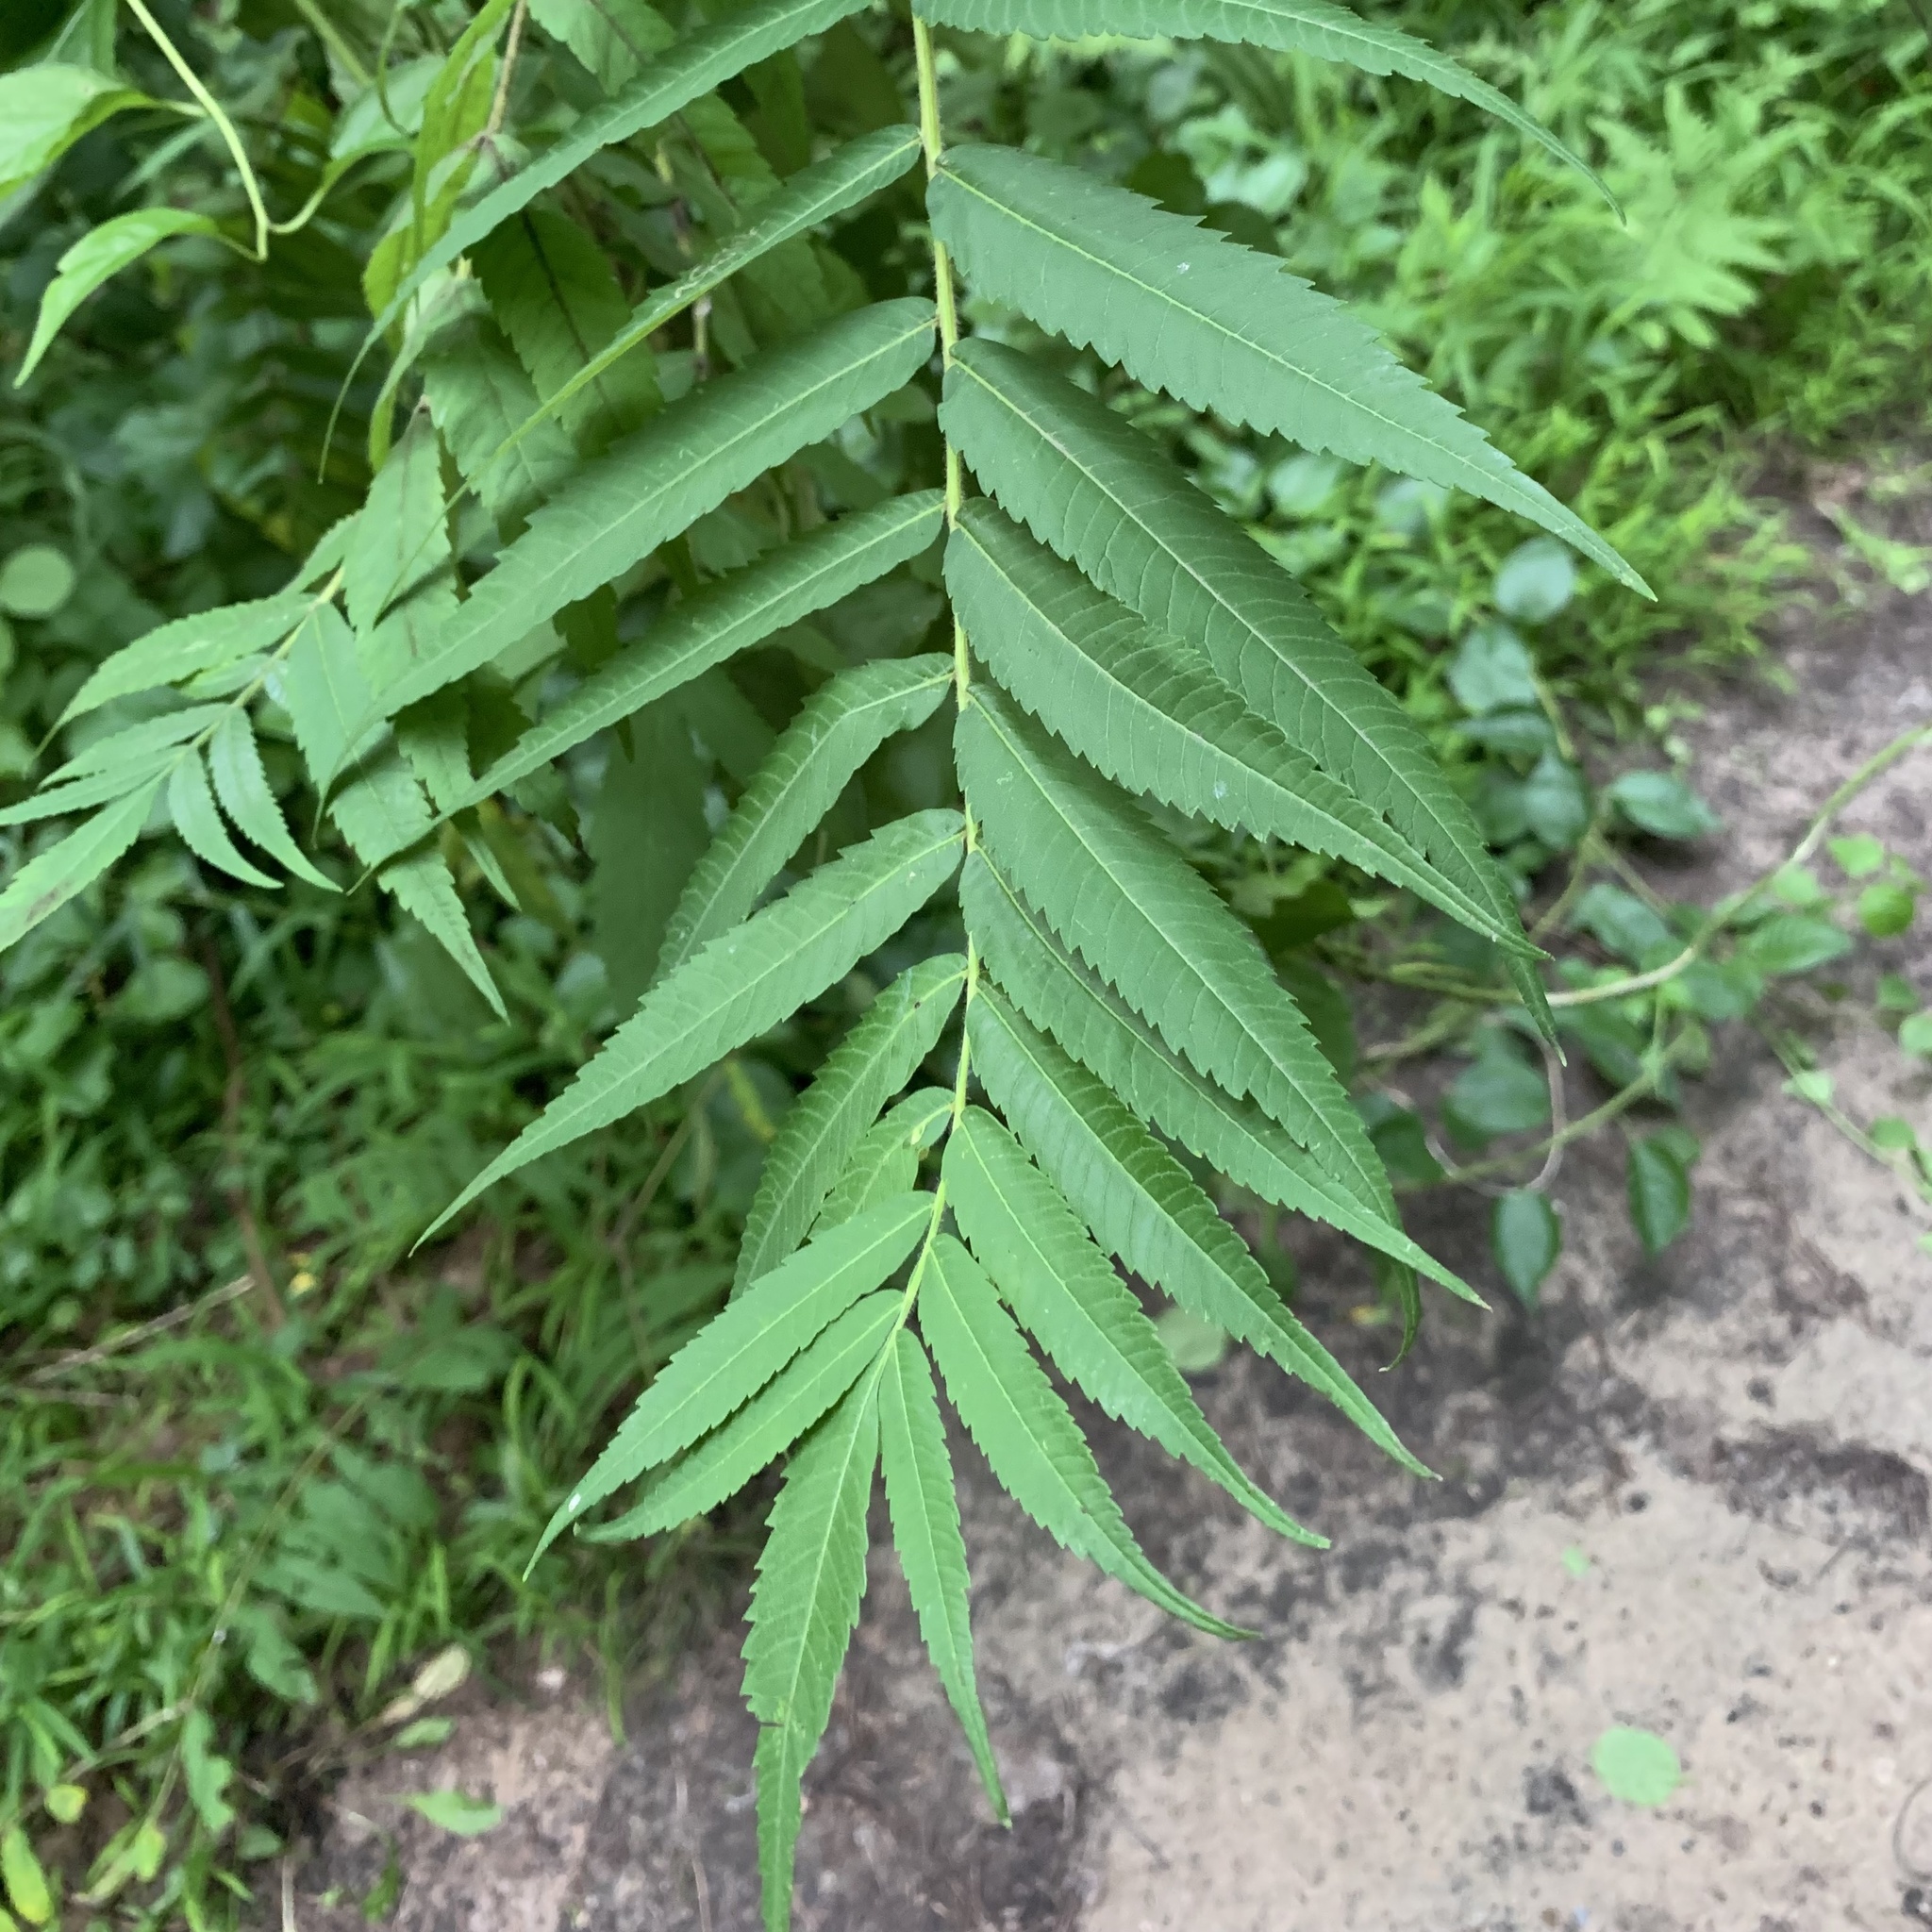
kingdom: Plantae
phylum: Tracheophyta
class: Magnoliopsida
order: Sapindales
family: Anacardiaceae
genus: Rhus
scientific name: Rhus typhina
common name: Staghorn sumac
